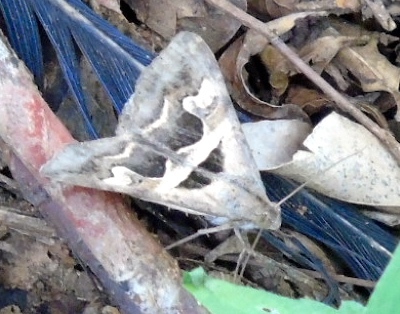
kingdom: Animalia
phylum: Arthropoda
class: Insecta
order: Lepidoptera
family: Erebidae
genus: Melipotis
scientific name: Melipotis cellaris
